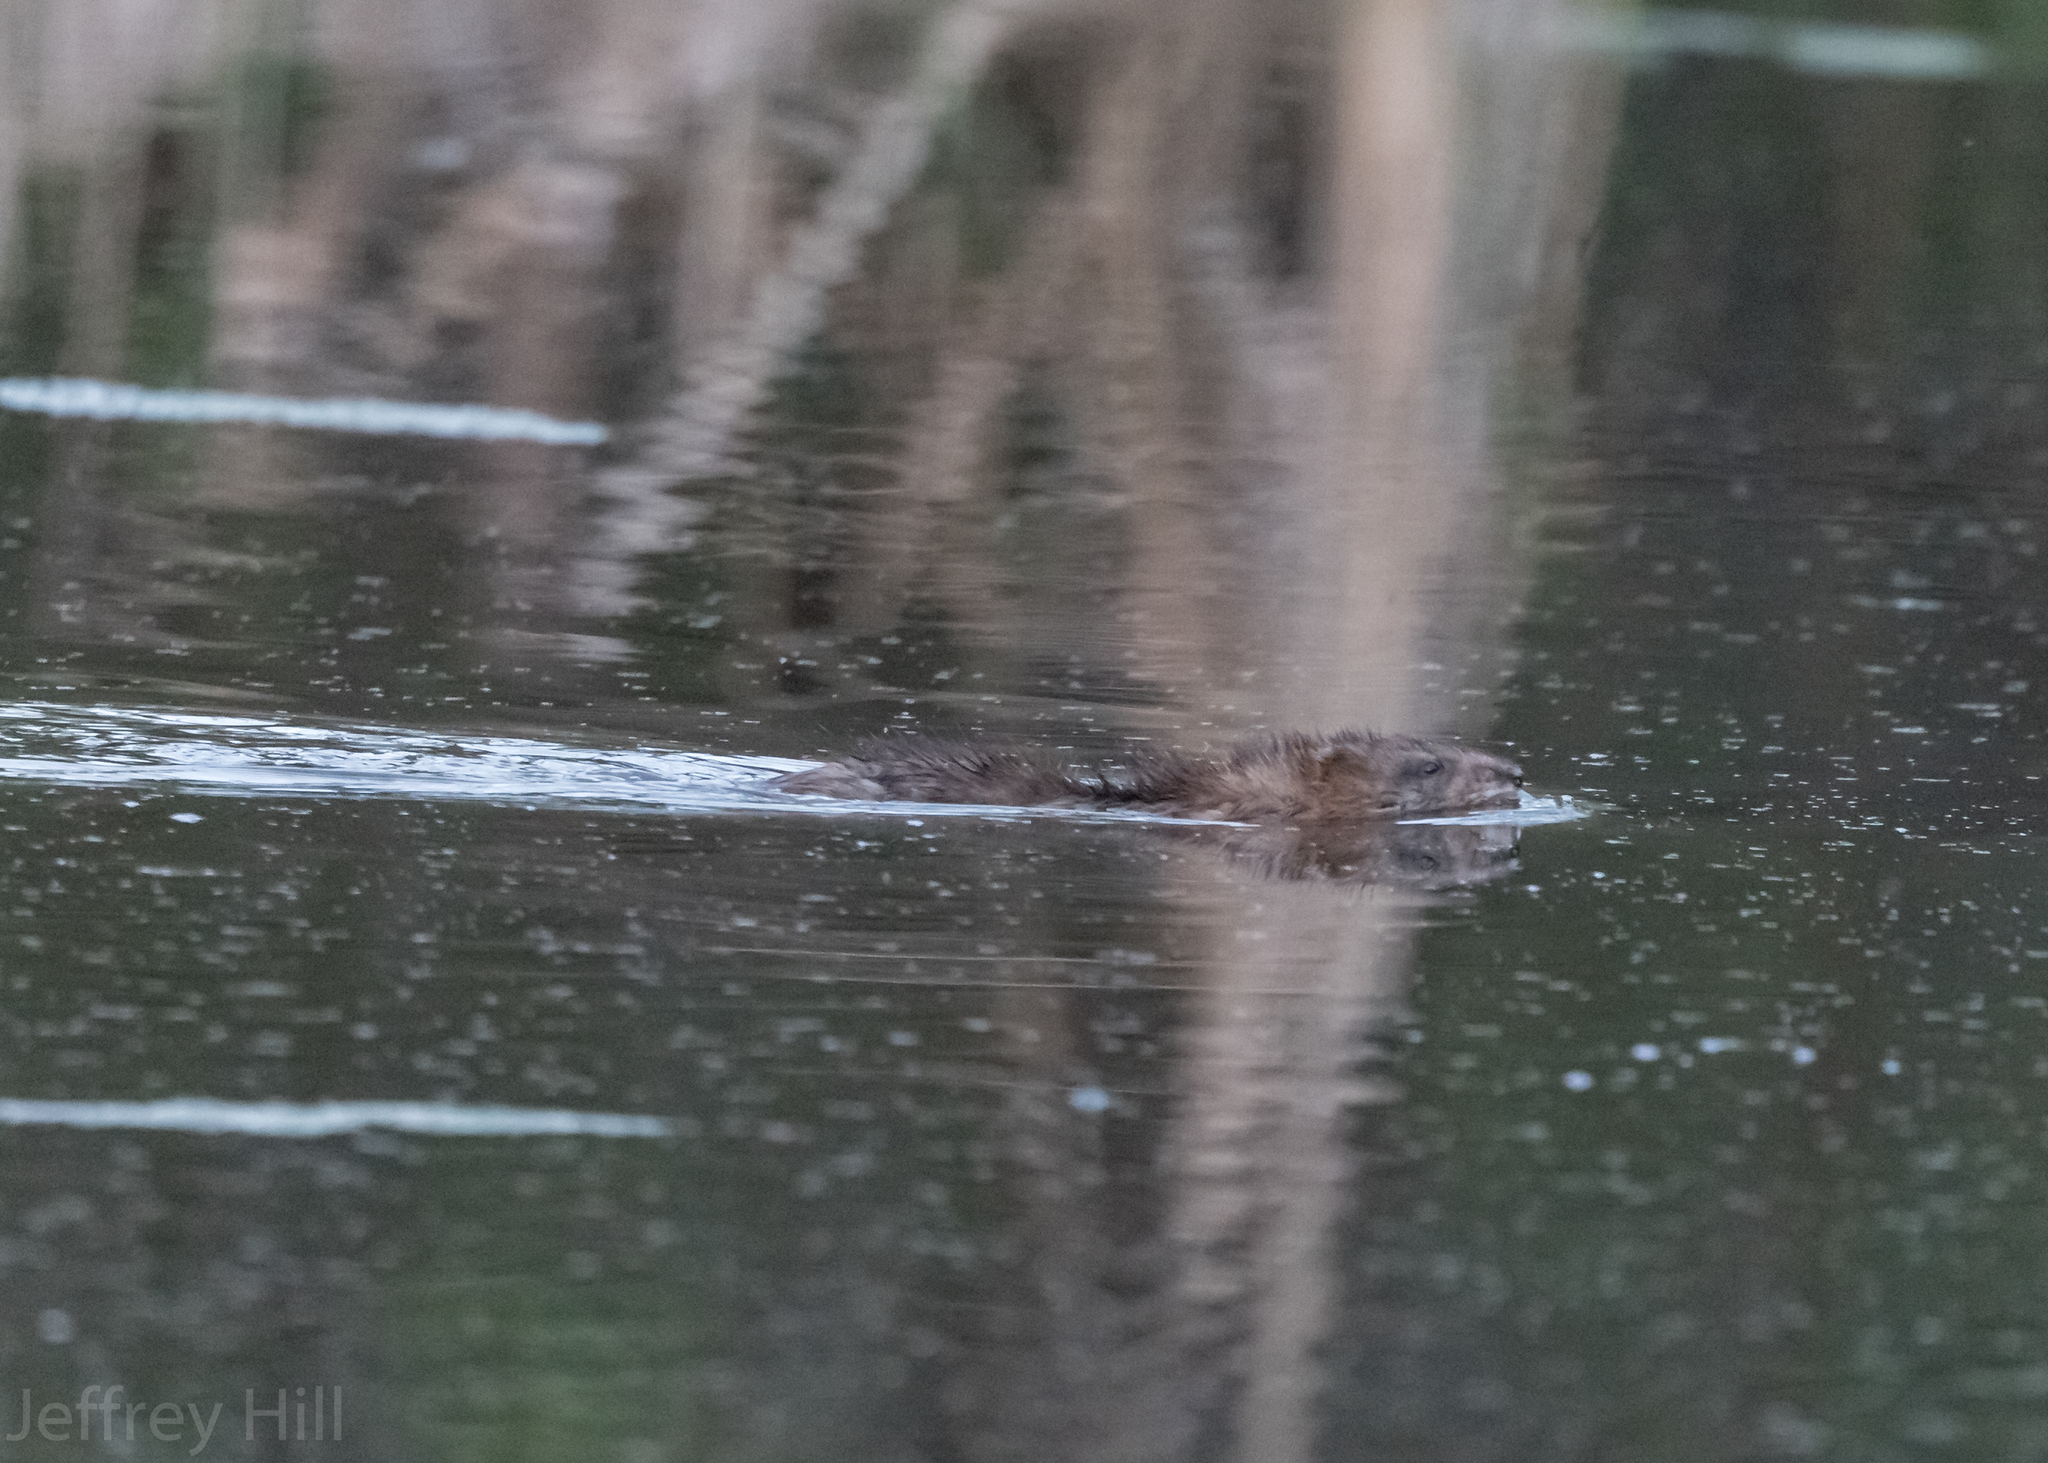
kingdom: Animalia
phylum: Chordata
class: Mammalia
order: Rodentia
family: Cricetidae
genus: Ondatra
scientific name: Ondatra zibethicus
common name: Muskrat
